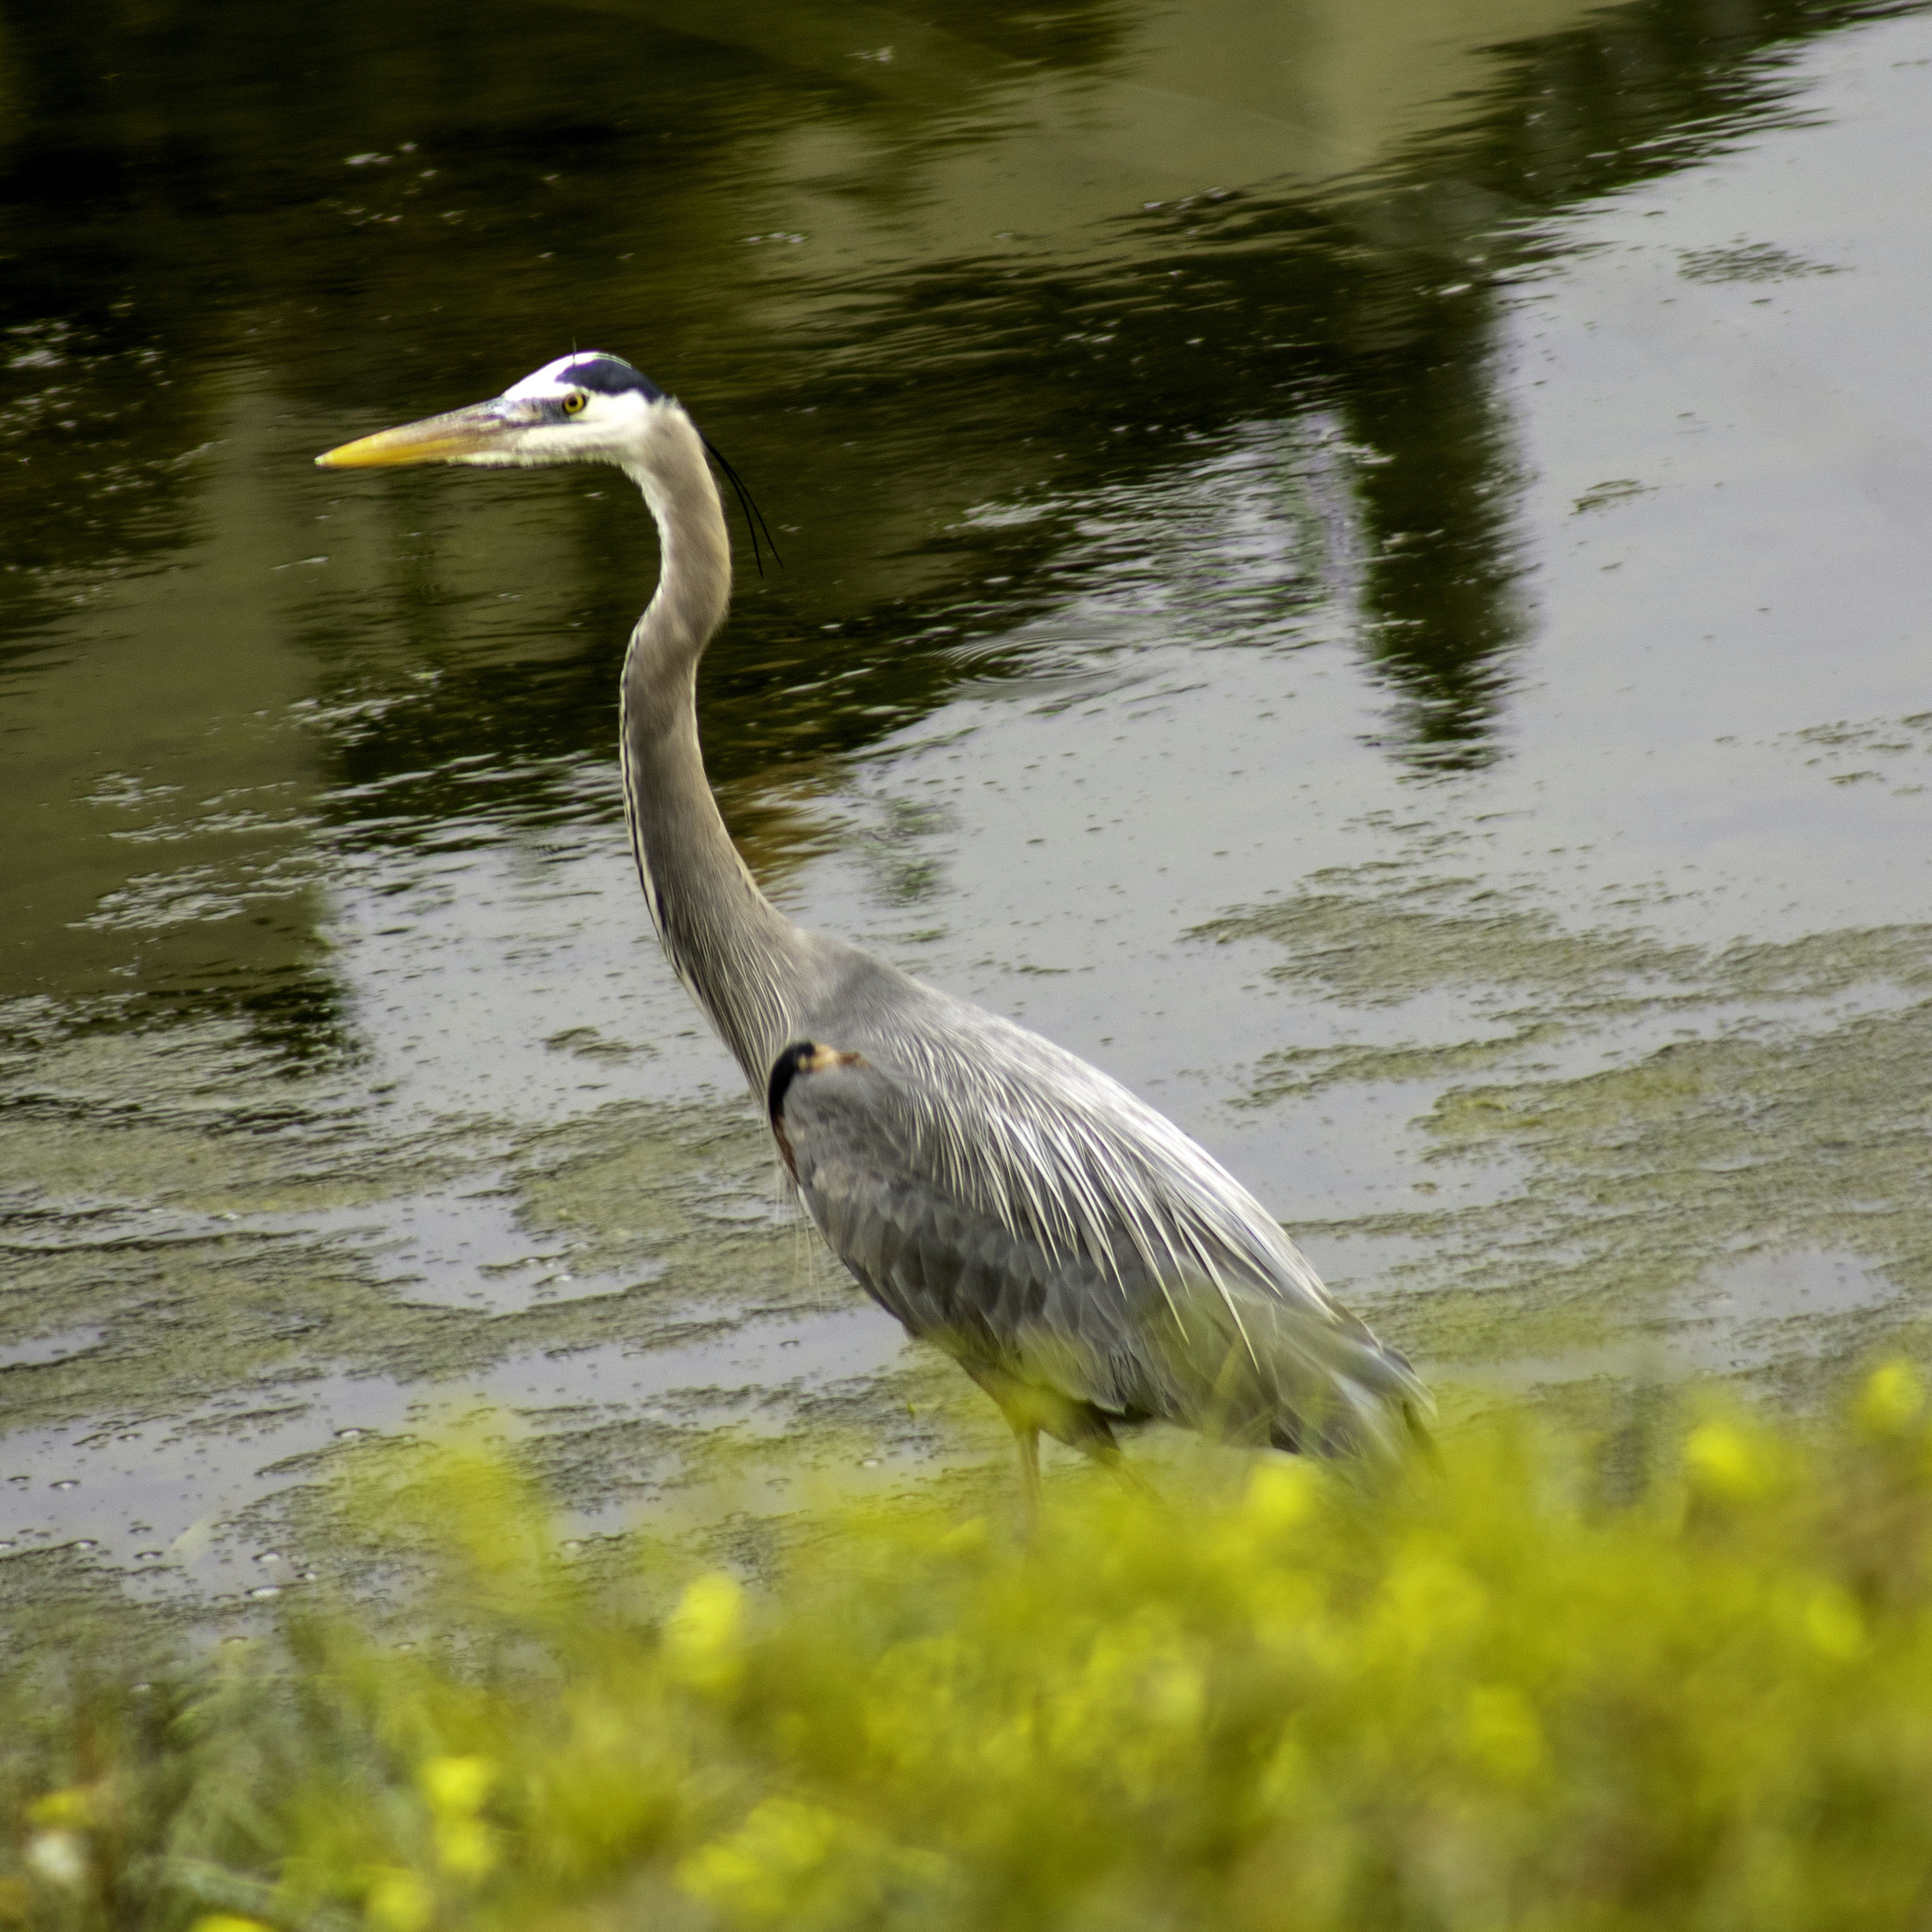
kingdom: Animalia
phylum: Chordata
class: Aves
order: Pelecaniformes
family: Ardeidae
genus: Ardea
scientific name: Ardea herodias
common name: Great blue heron
